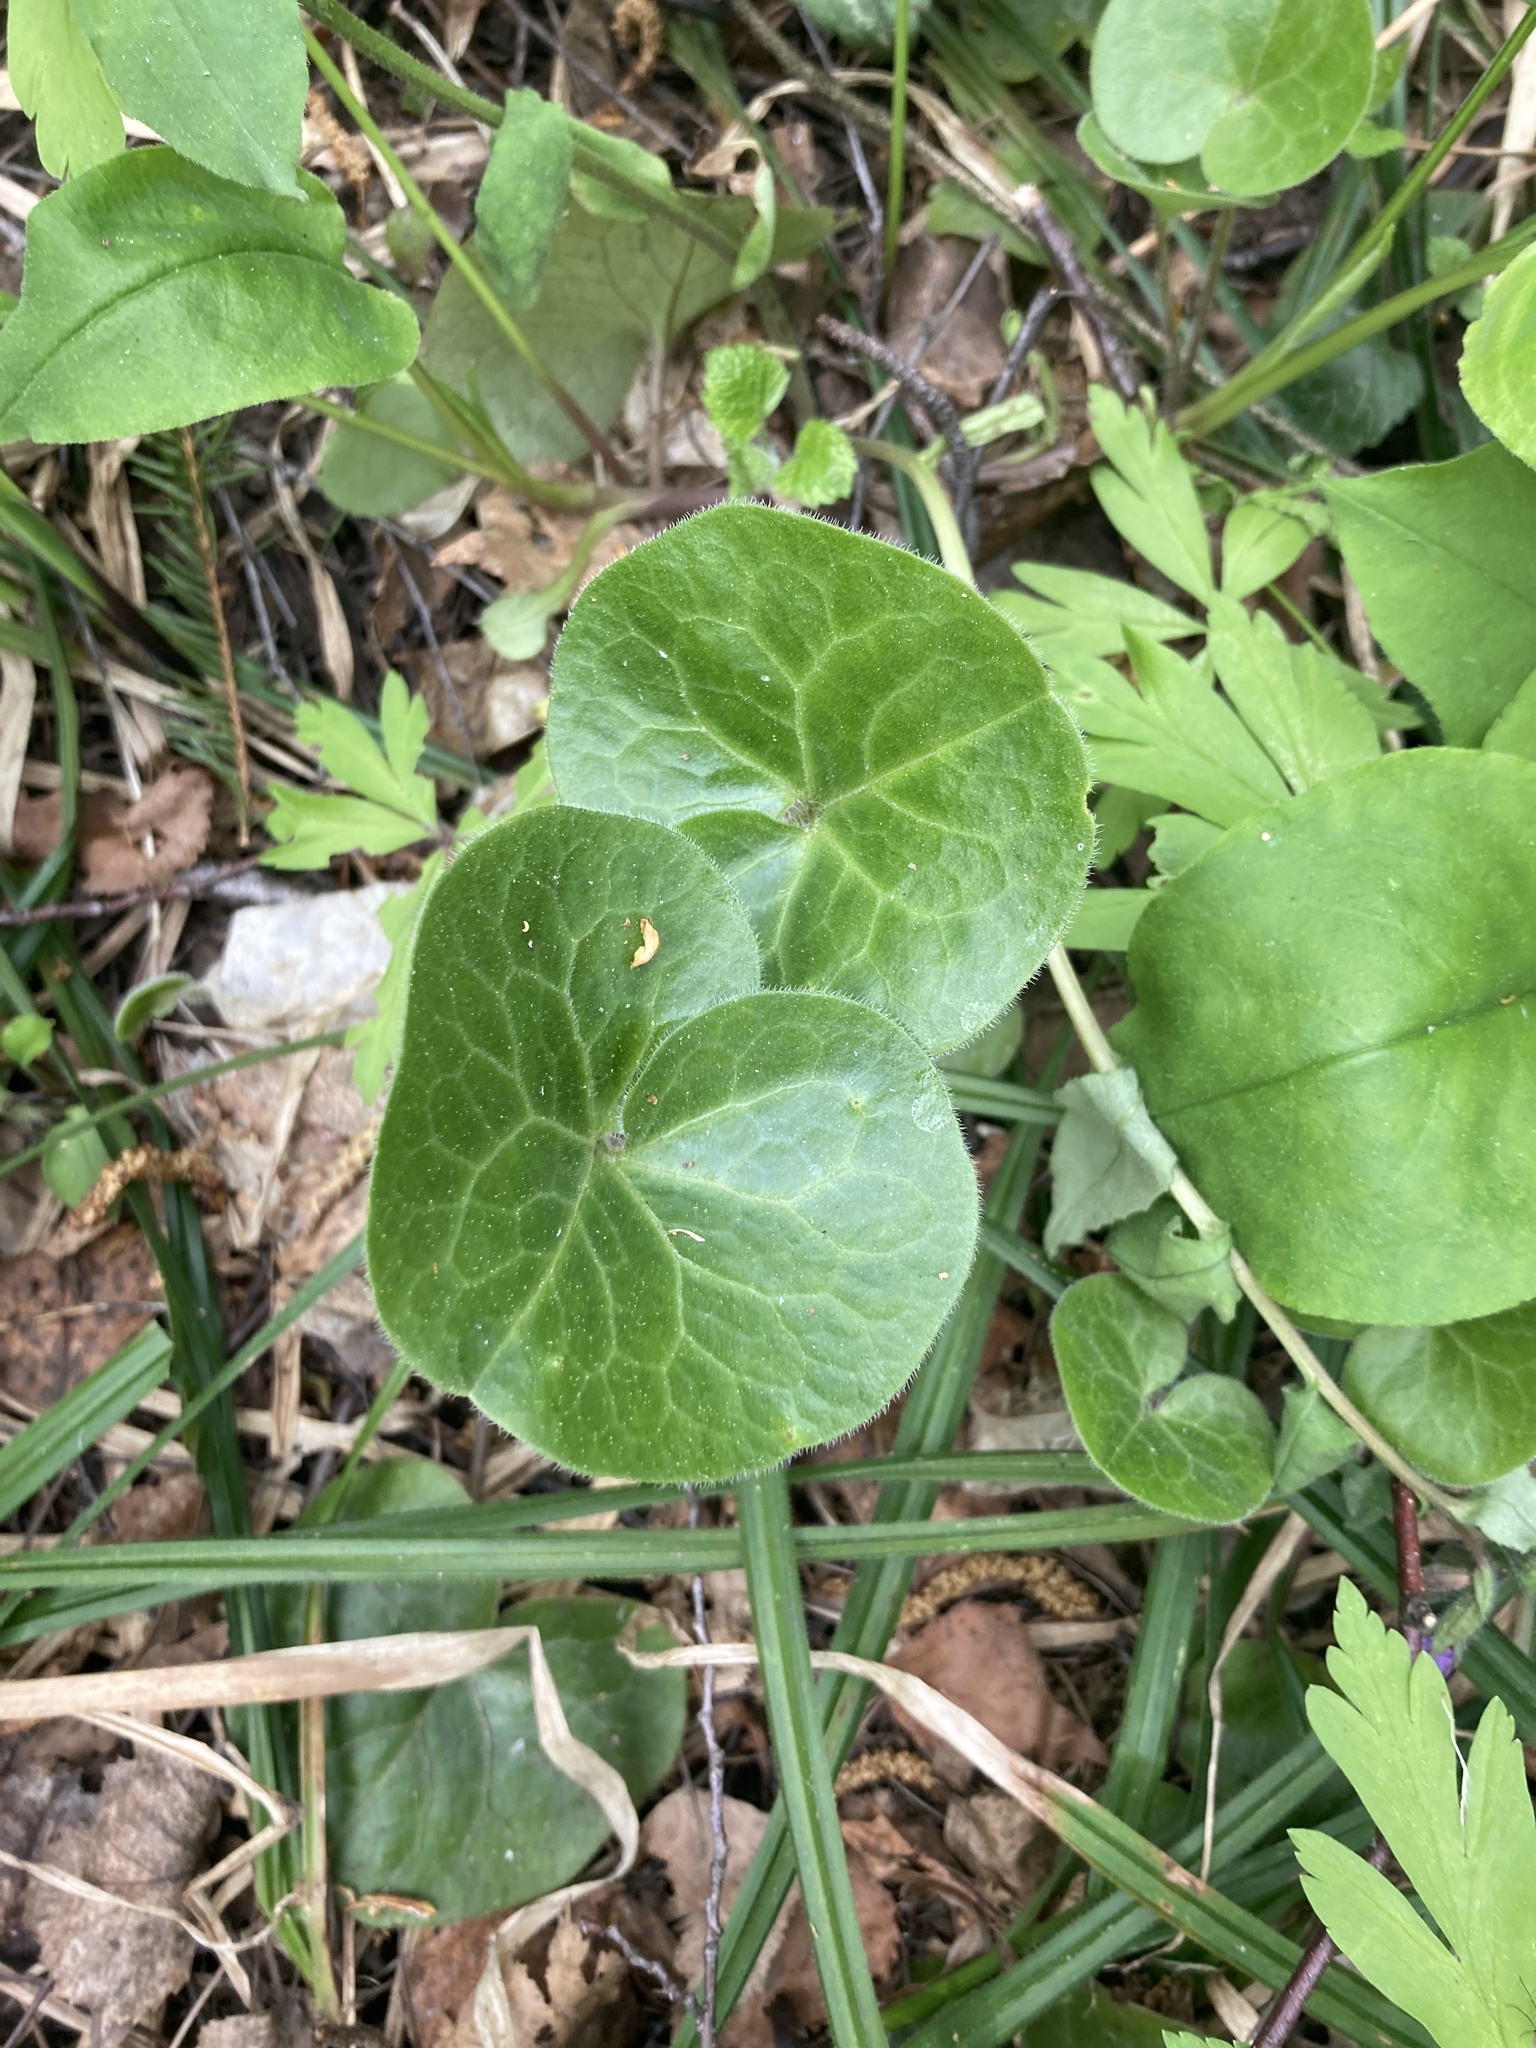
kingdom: Plantae
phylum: Tracheophyta
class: Magnoliopsida
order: Piperales
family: Aristolochiaceae
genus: Asarum
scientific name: Asarum europaeum
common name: Asarabacca
